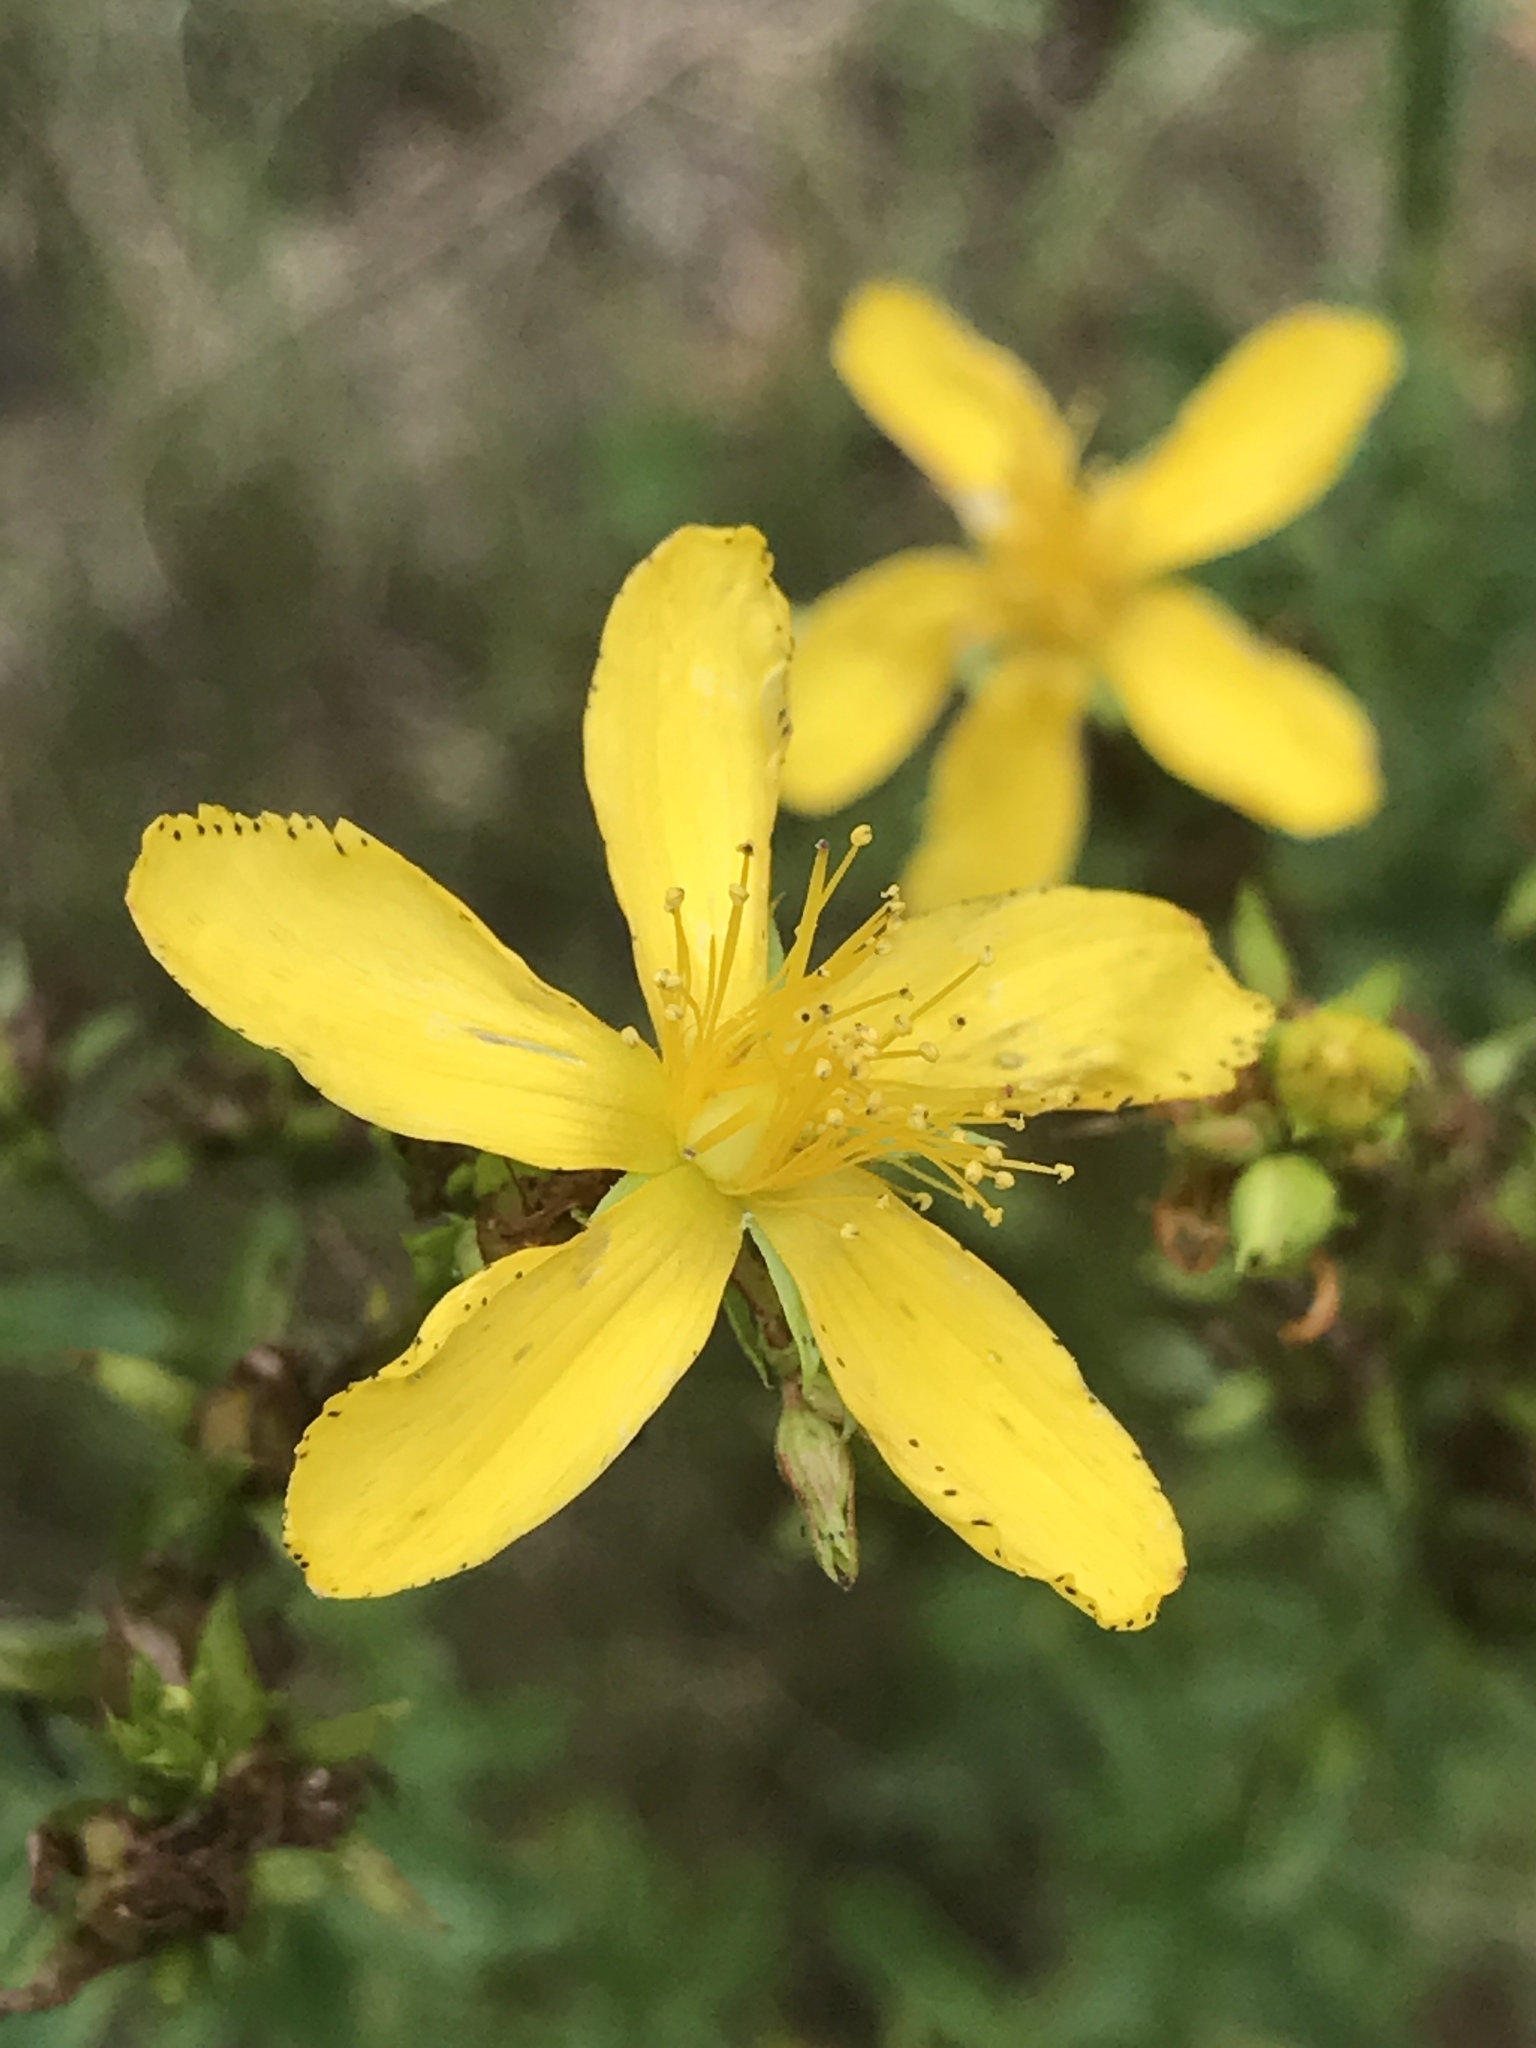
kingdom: Plantae
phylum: Tracheophyta
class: Magnoliopsida
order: Malpighiales
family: Hypericaceae
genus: Hypericum
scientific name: Hypericum perforatum
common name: Common st. johnswort
